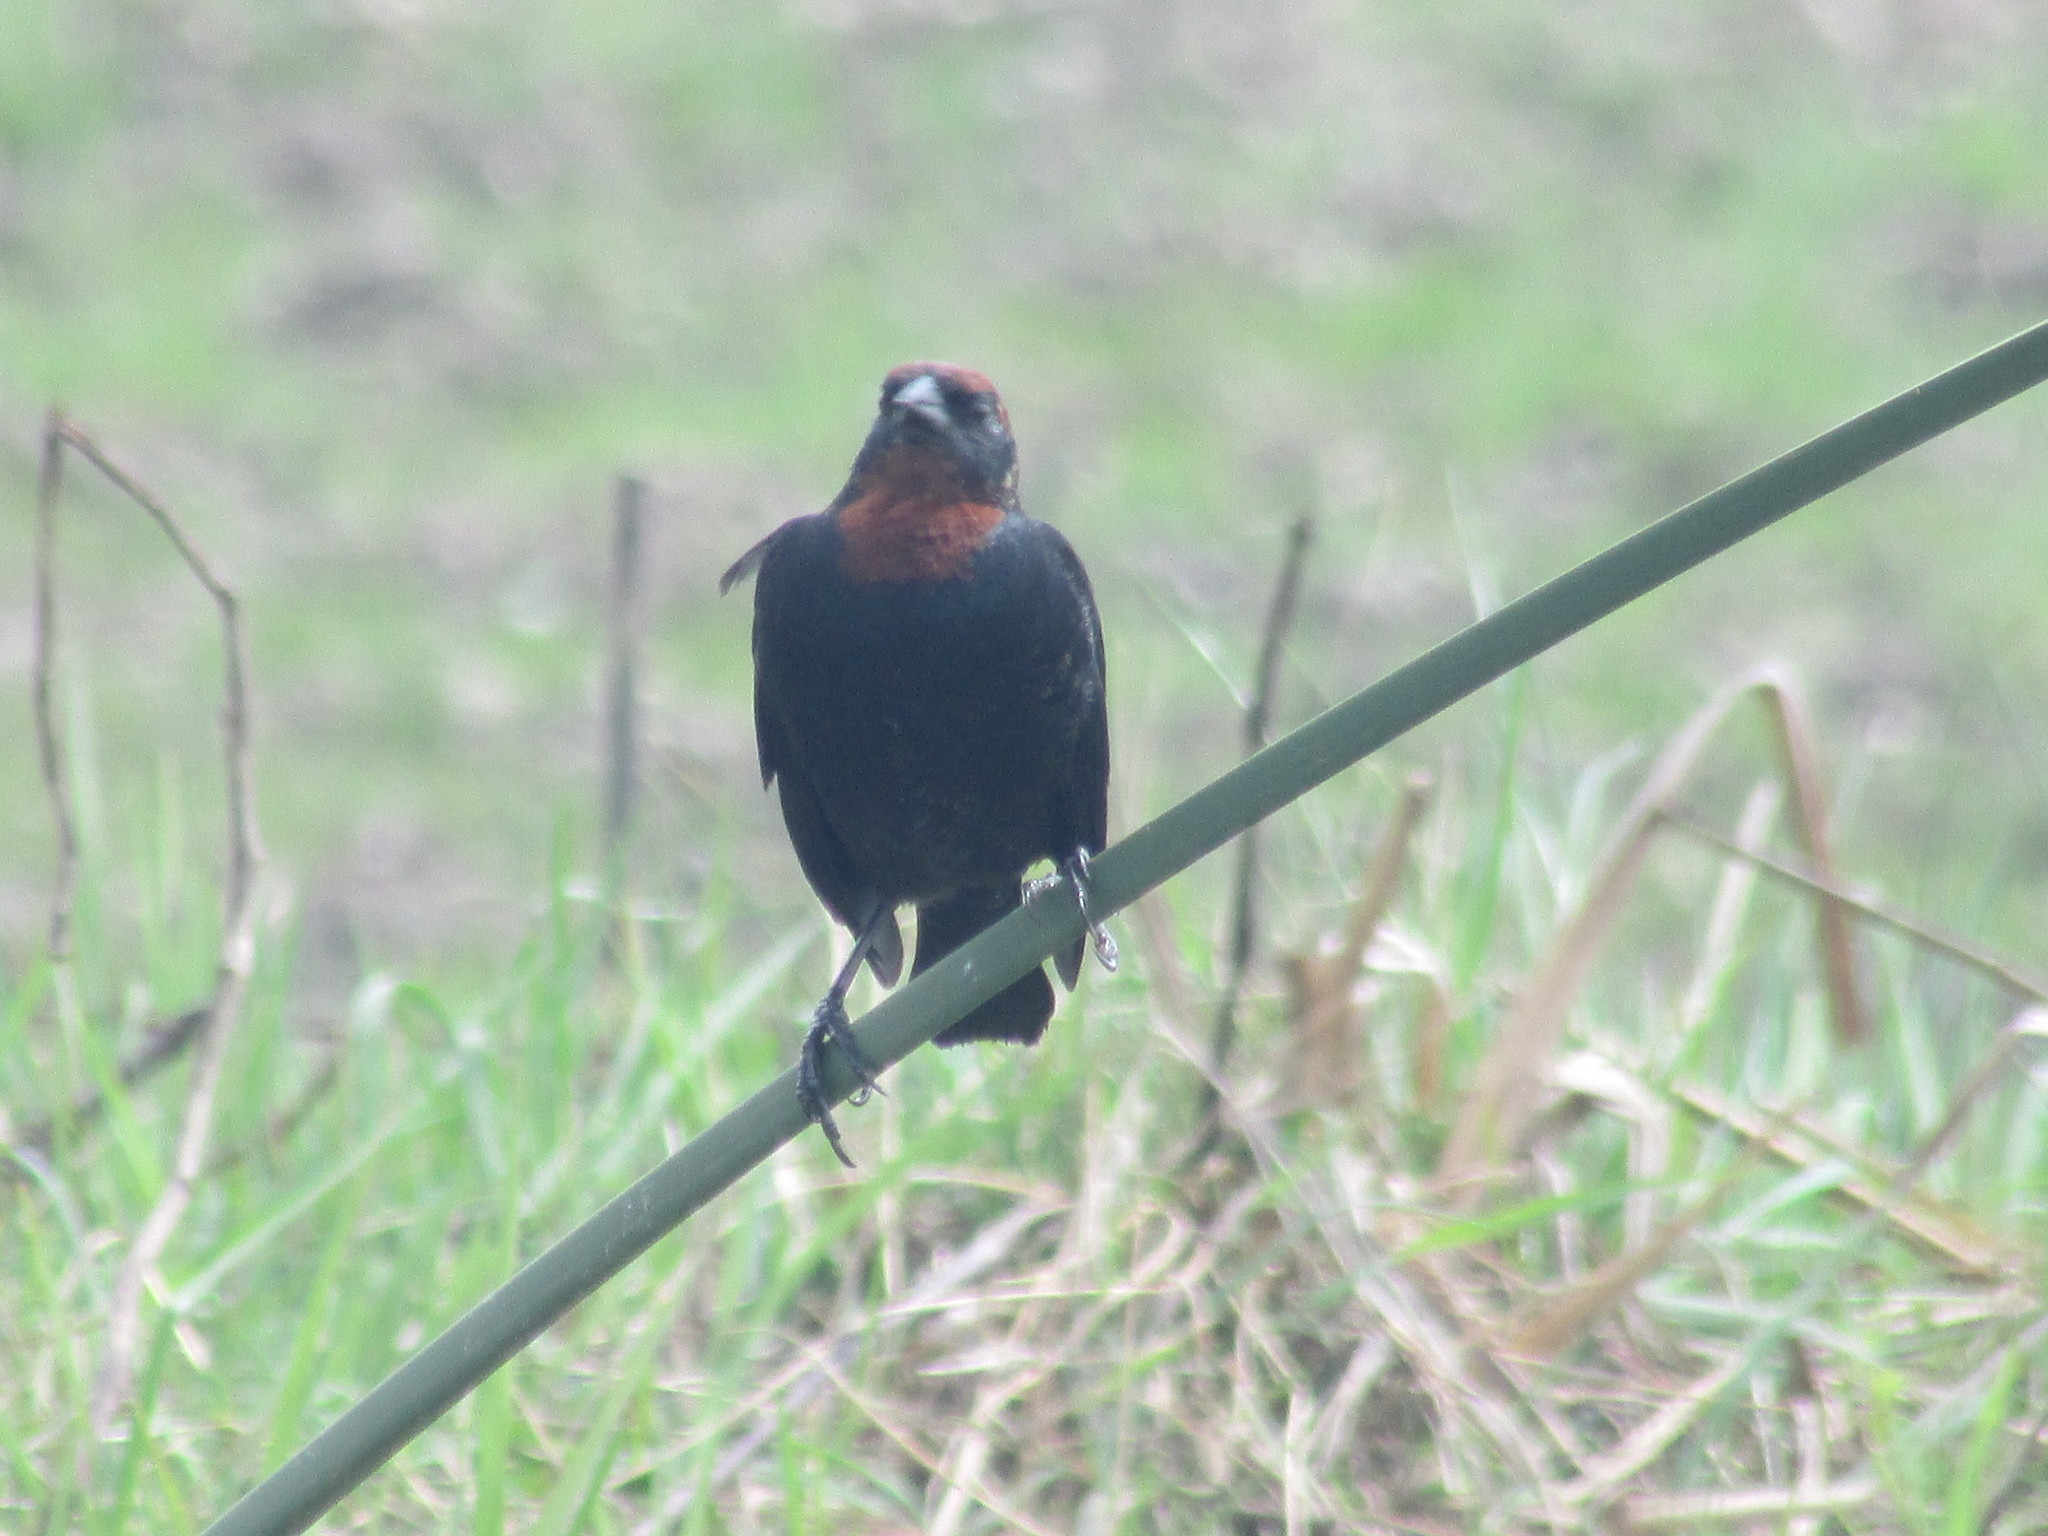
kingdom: Animalia
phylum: Chordata
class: Aves
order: Passeriformes
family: Icteridae
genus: Chrysomus
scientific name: Chrysomus ruficapillus
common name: Chestnut-capped blackbird
